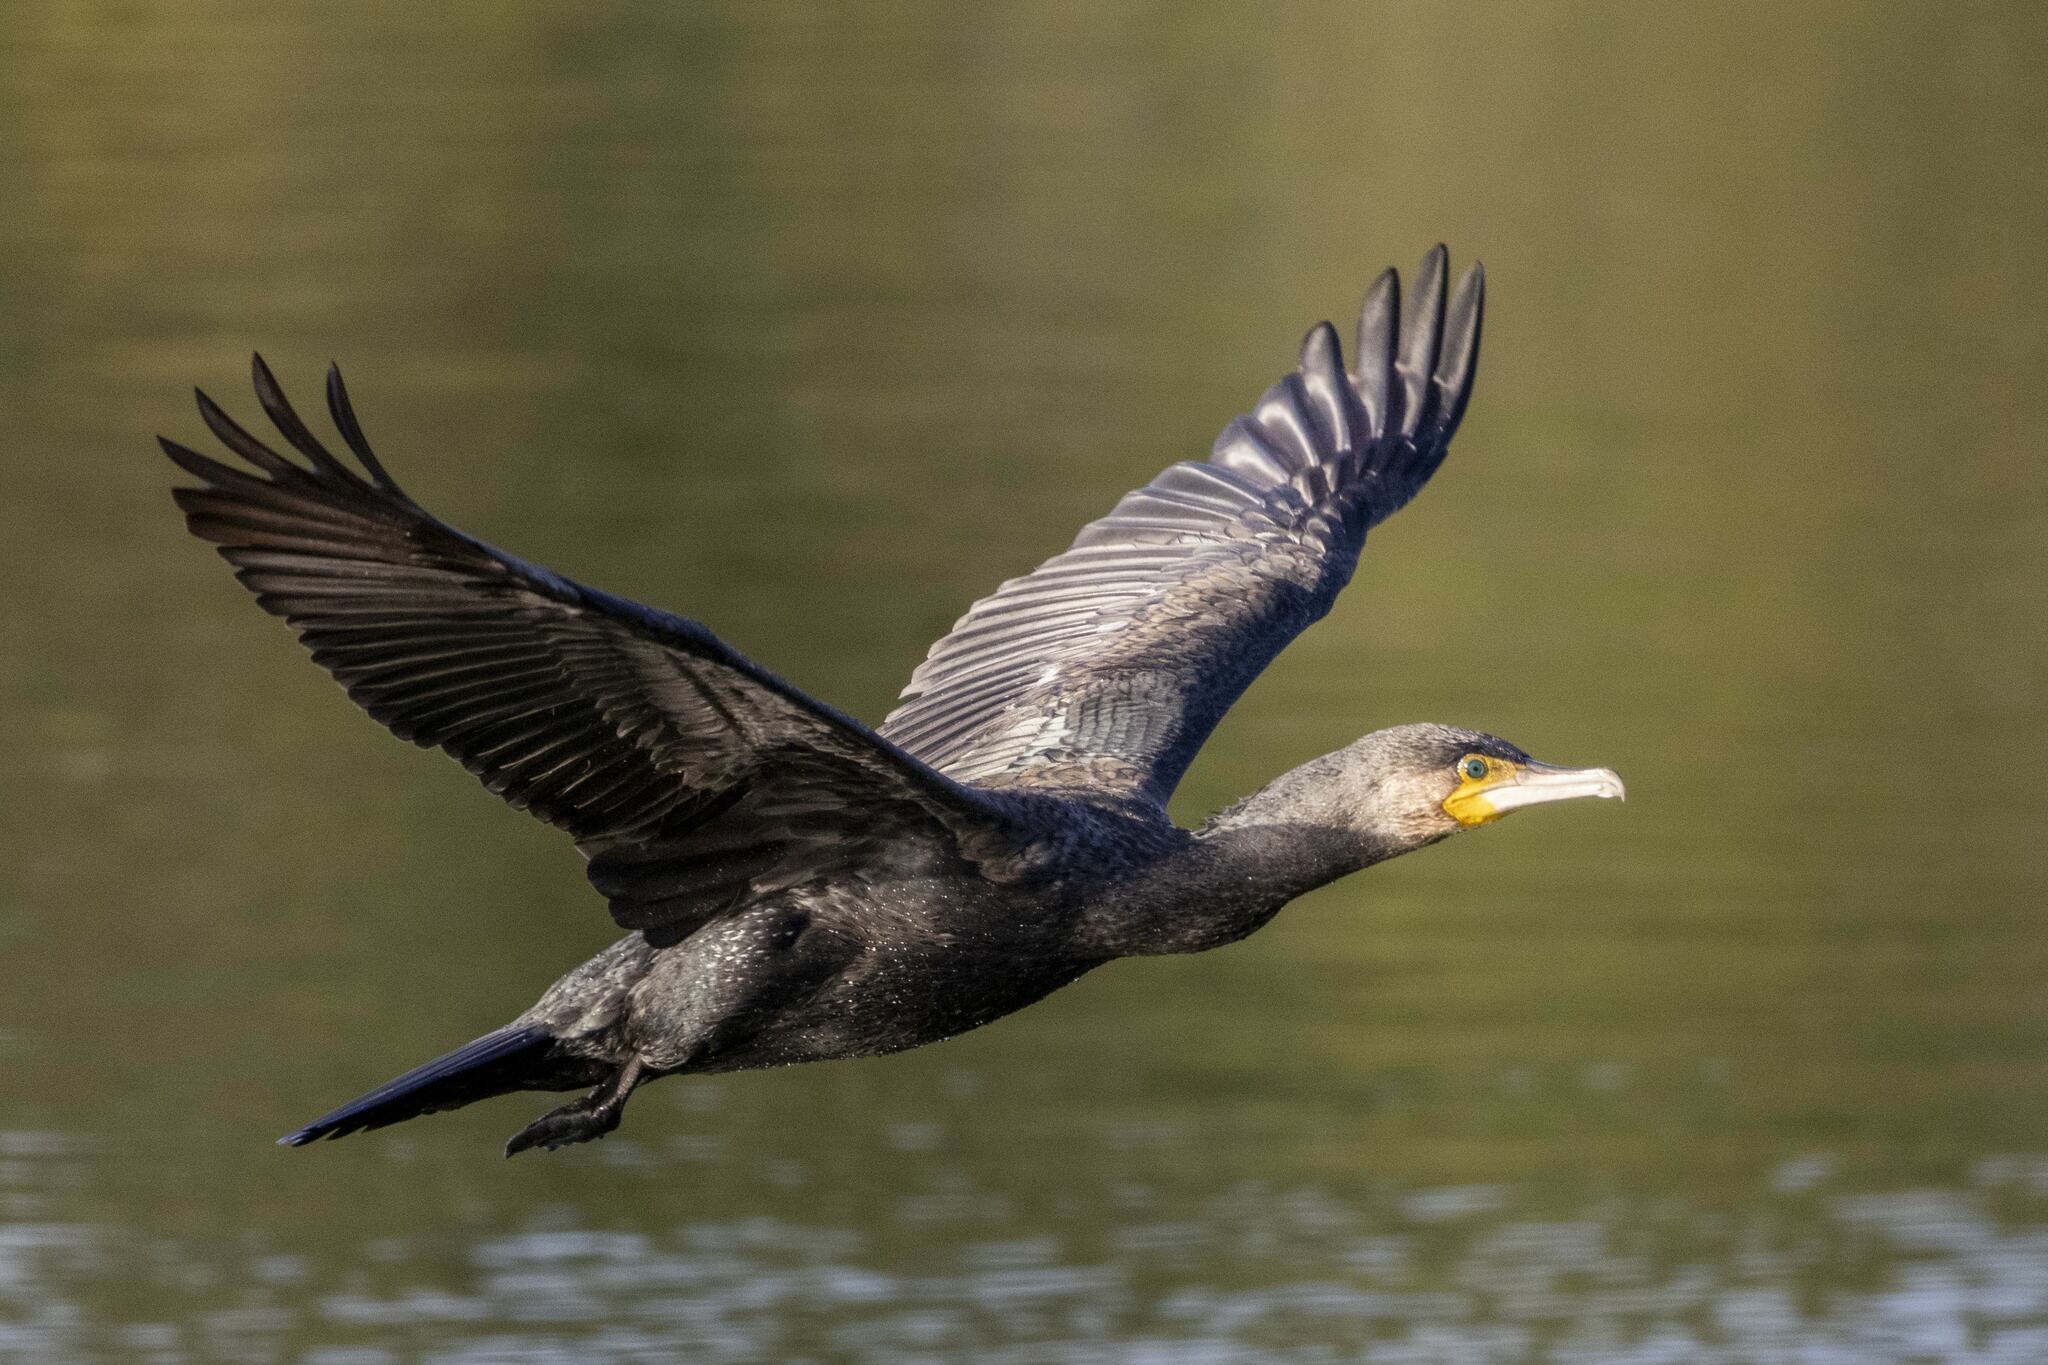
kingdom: Animalia
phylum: Chordata
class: Aves
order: Suliformes
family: Phalacrocoracidae
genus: Phalacrocorax
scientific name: Phalacrocorax carbo
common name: Great cormorant
